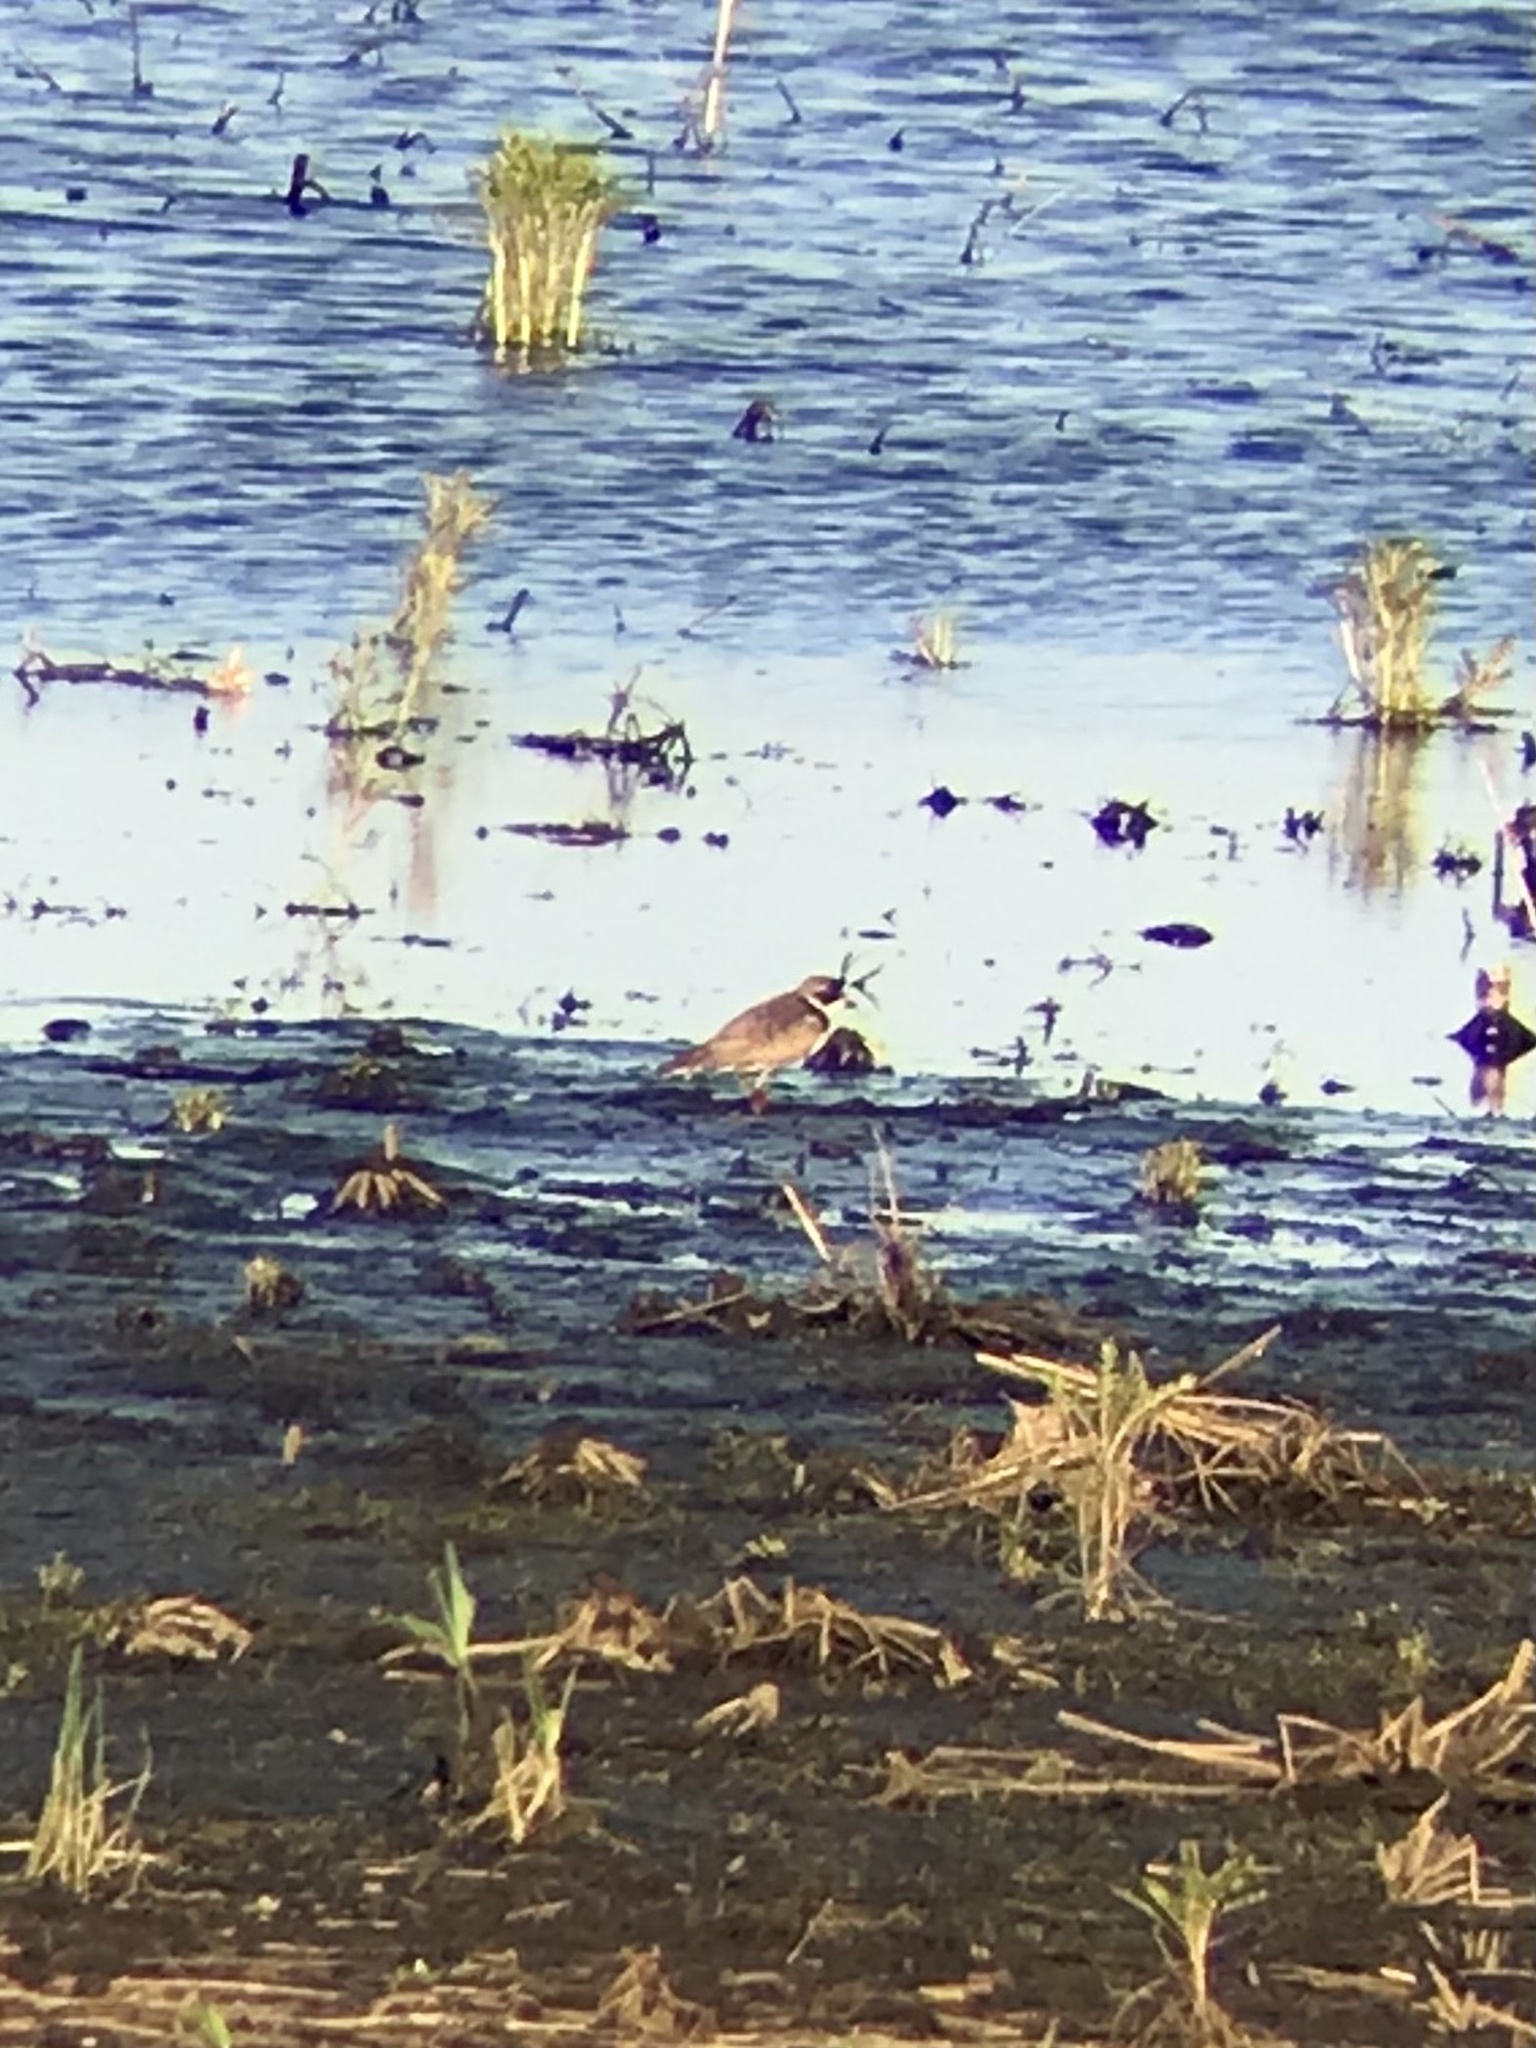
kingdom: Animalia
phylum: Chordata
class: Aves
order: Charadriiformes
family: Charadriidae
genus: Charadrius
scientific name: Charadrius semipalmatus
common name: Semipalmated plover
